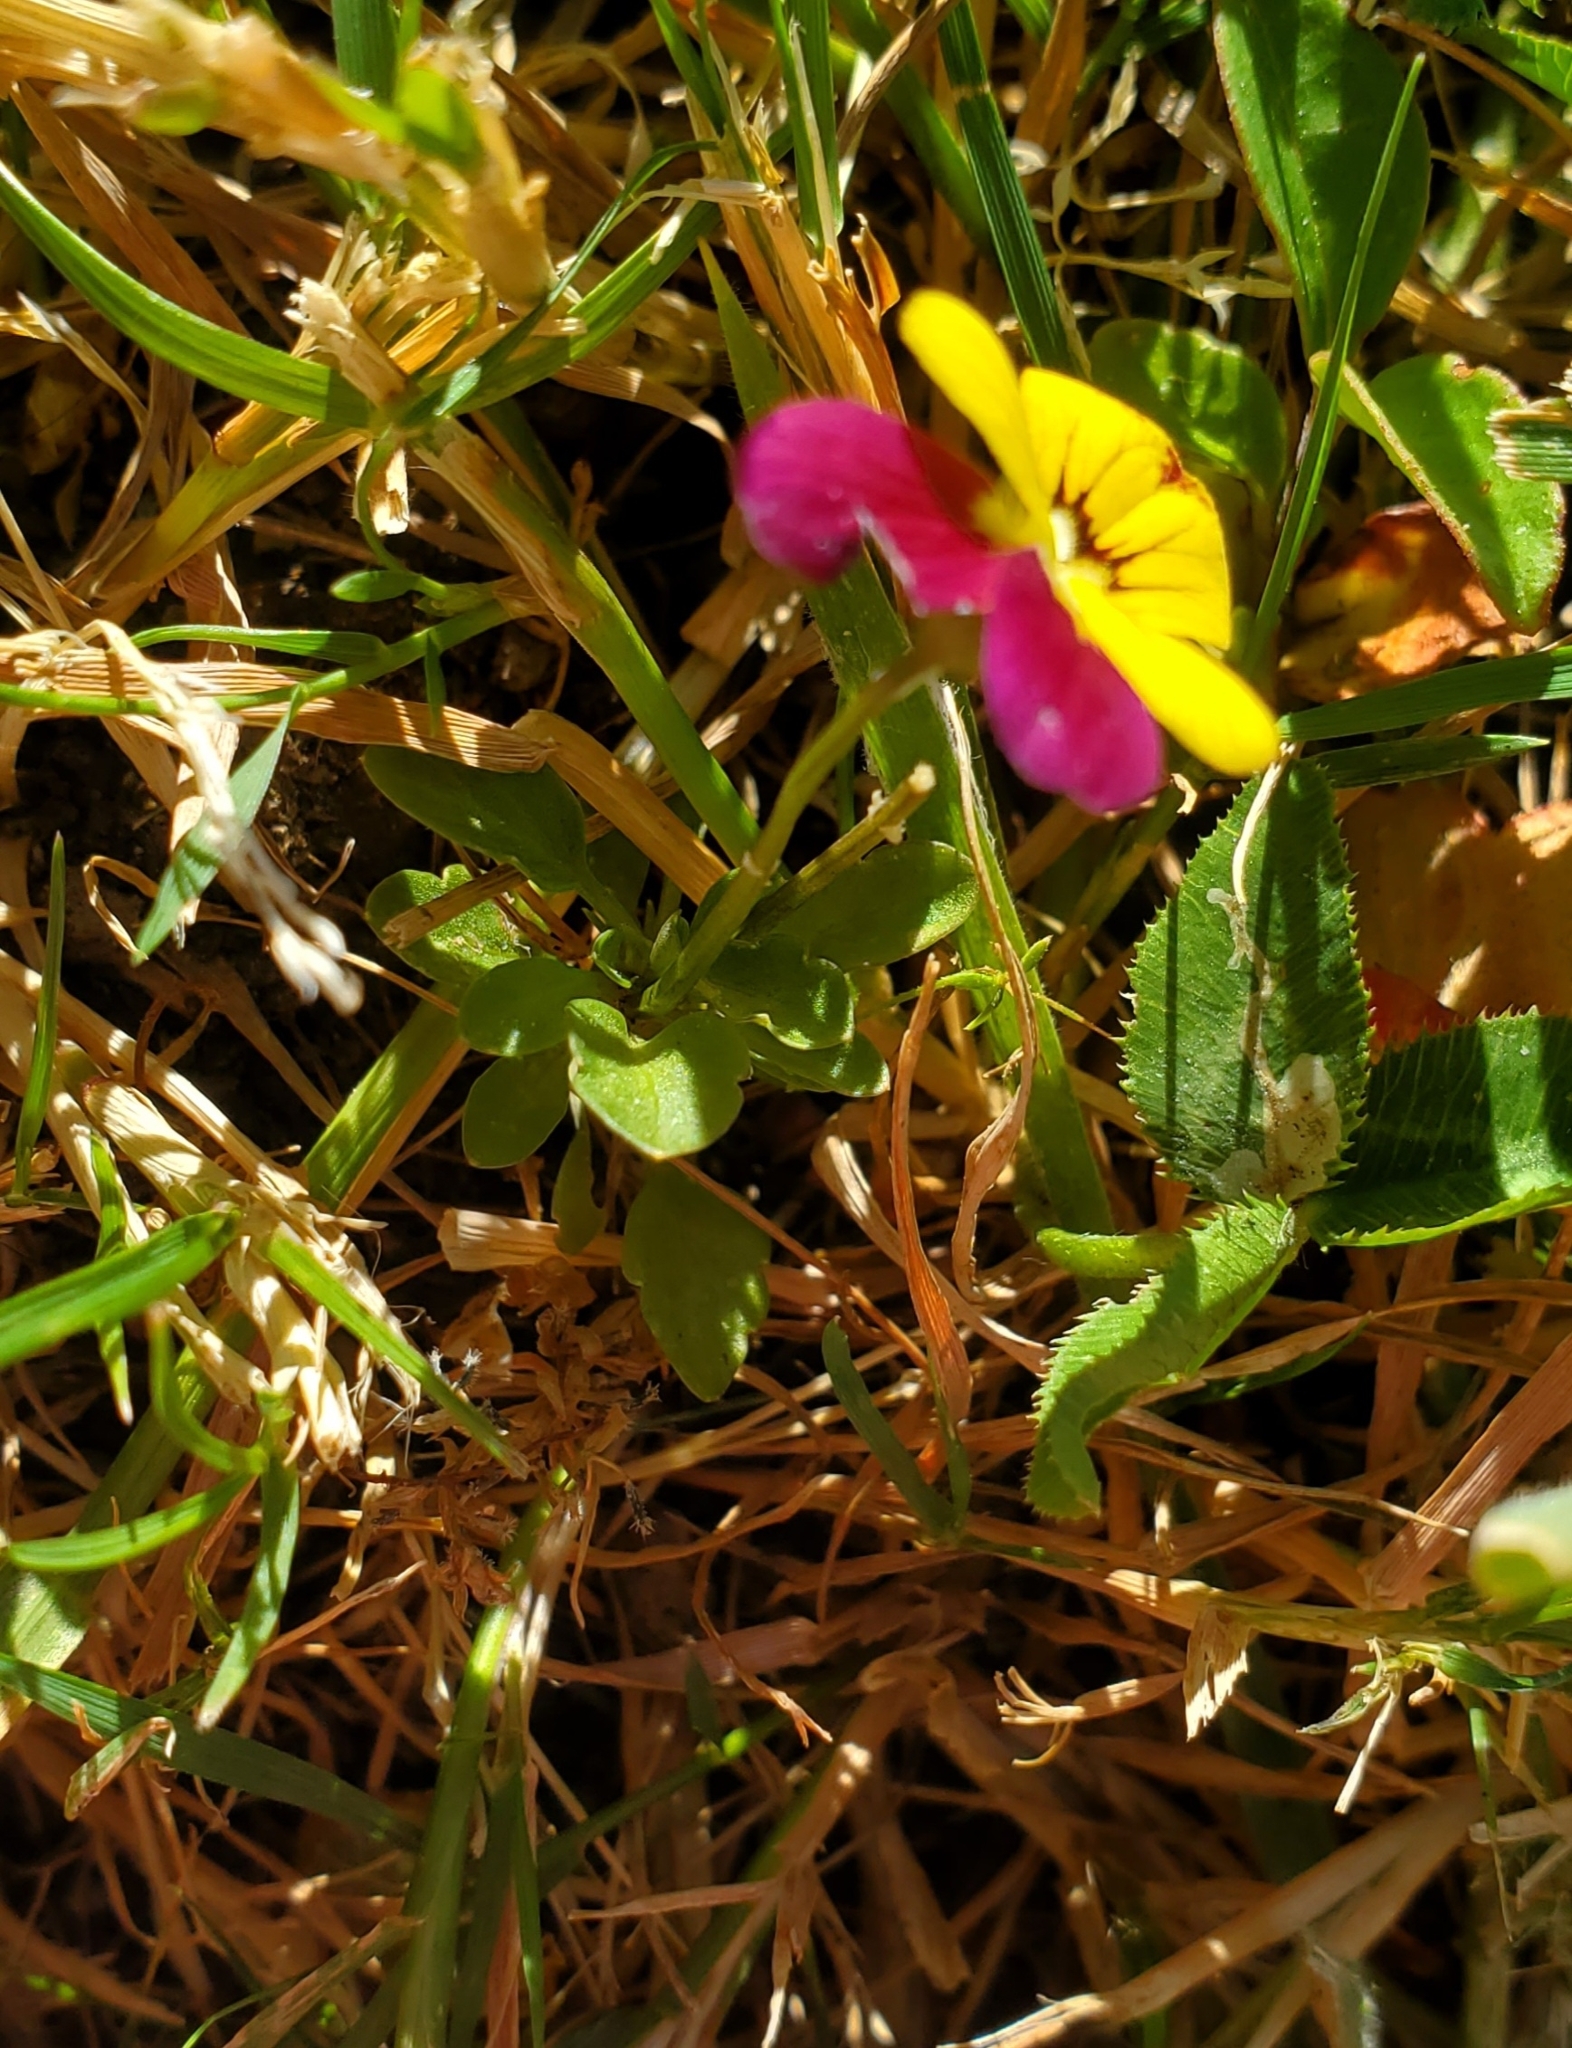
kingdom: Plantae
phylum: Tracheophyta
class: Magnoliopsida
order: Malpighiales
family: Violaceae
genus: Viola
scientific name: Viola williamsii
